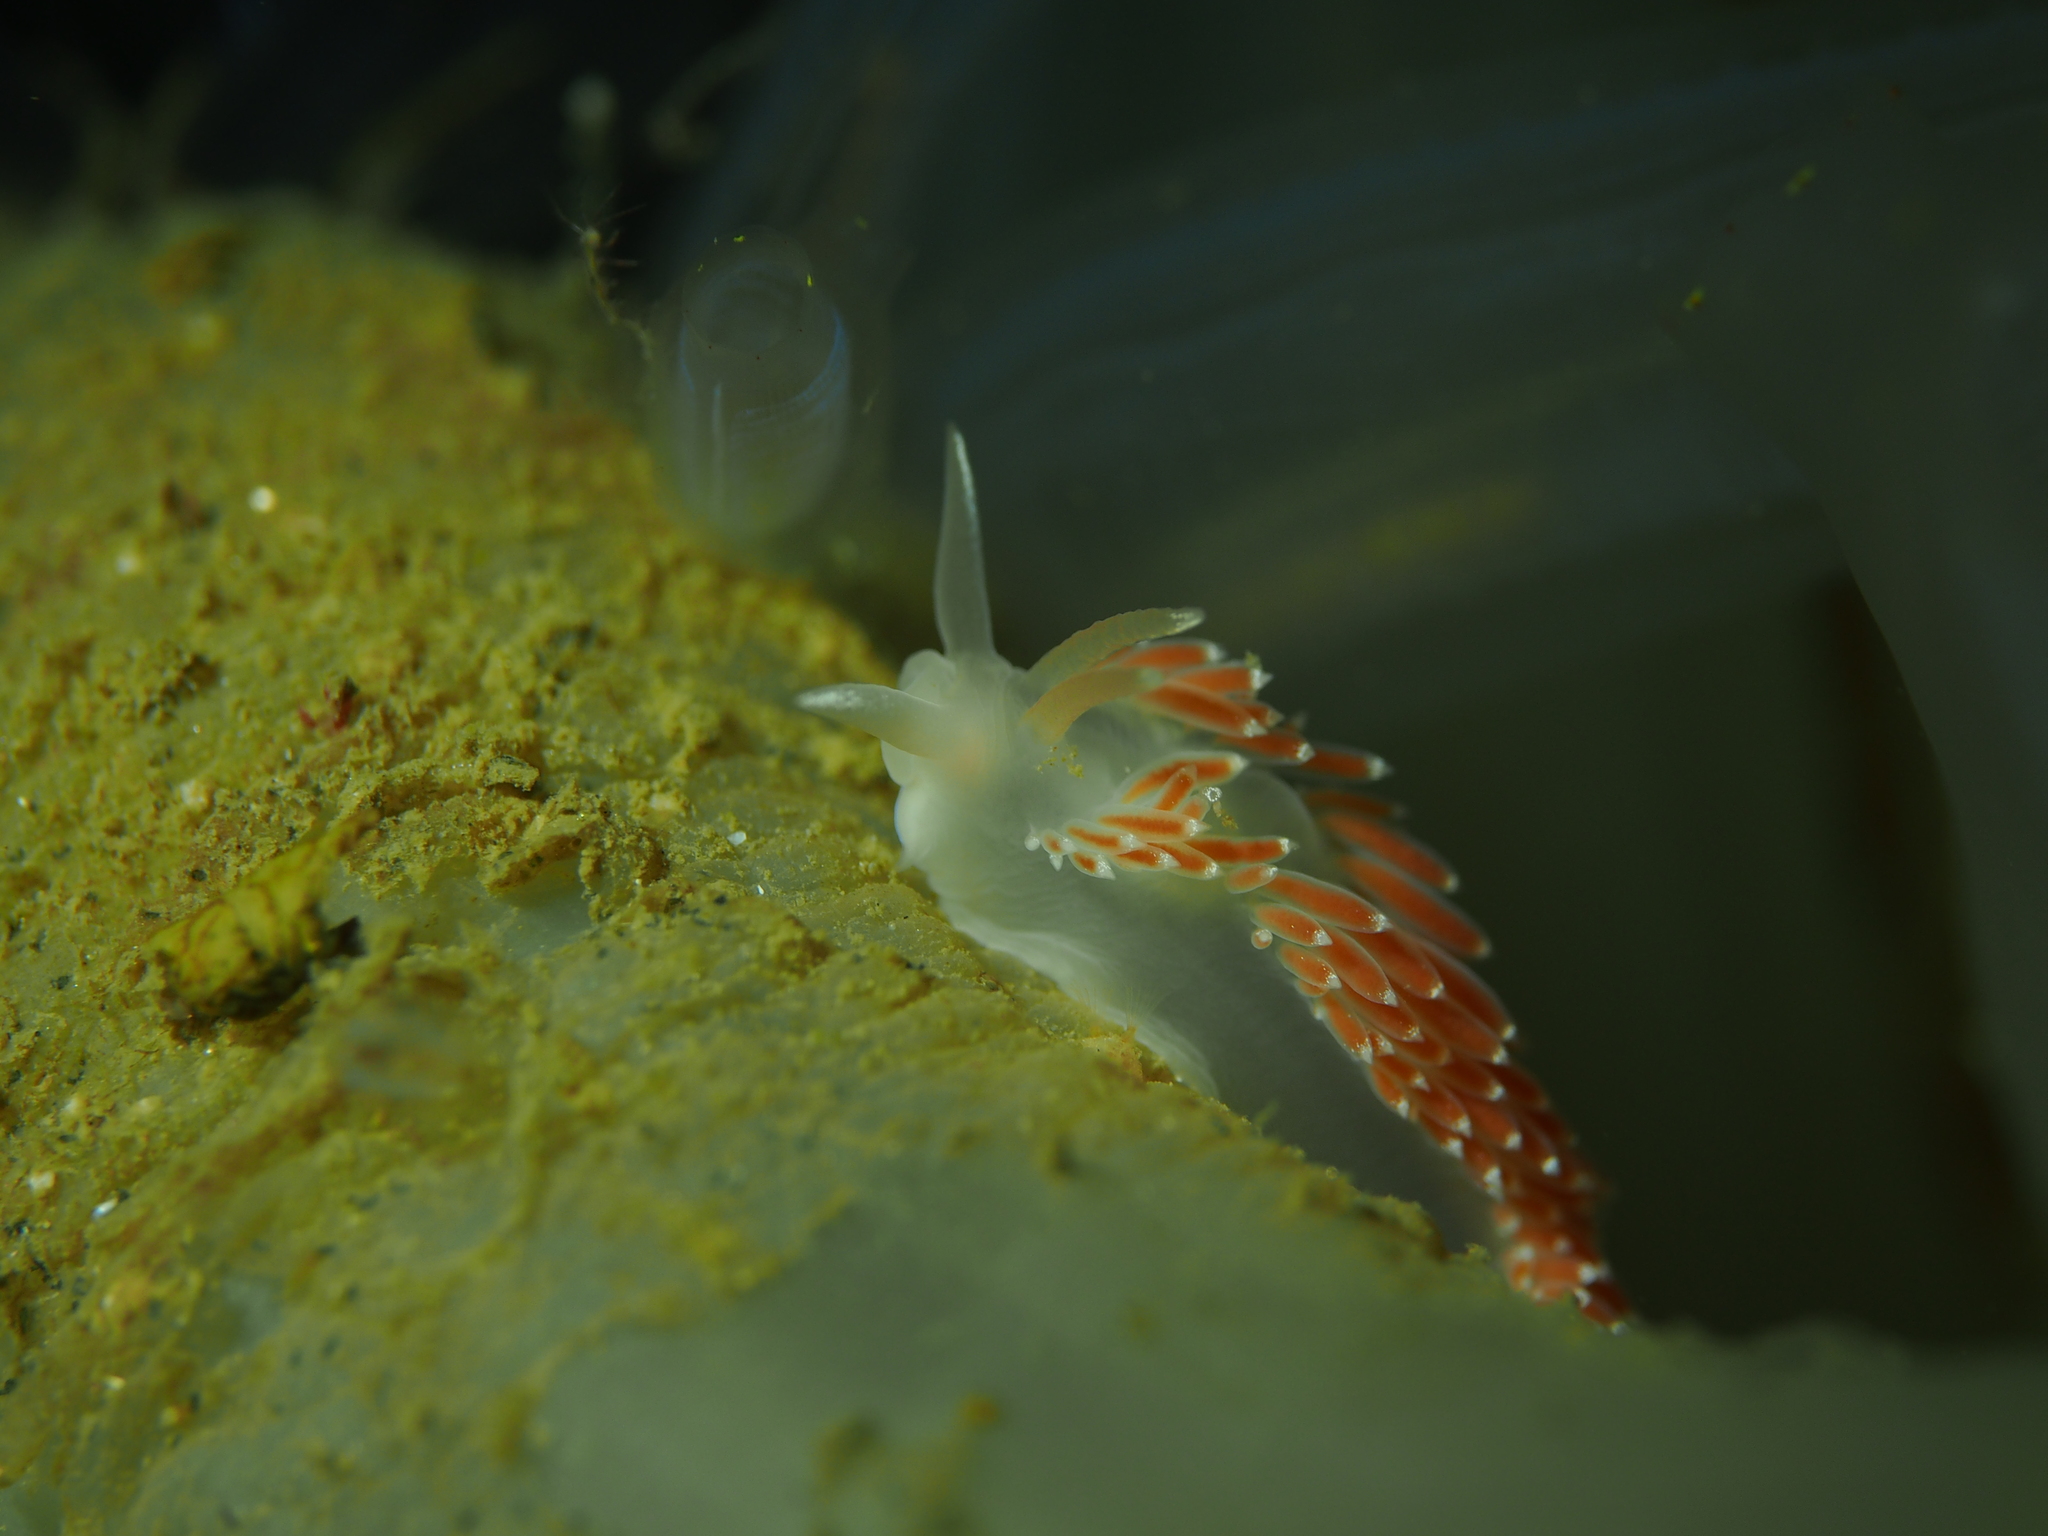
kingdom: Animalia
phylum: Mollusca
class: Gastropoda
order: Nudibranchia
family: Coryphellidae
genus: Coryphella
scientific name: Coryphella verrucosa
